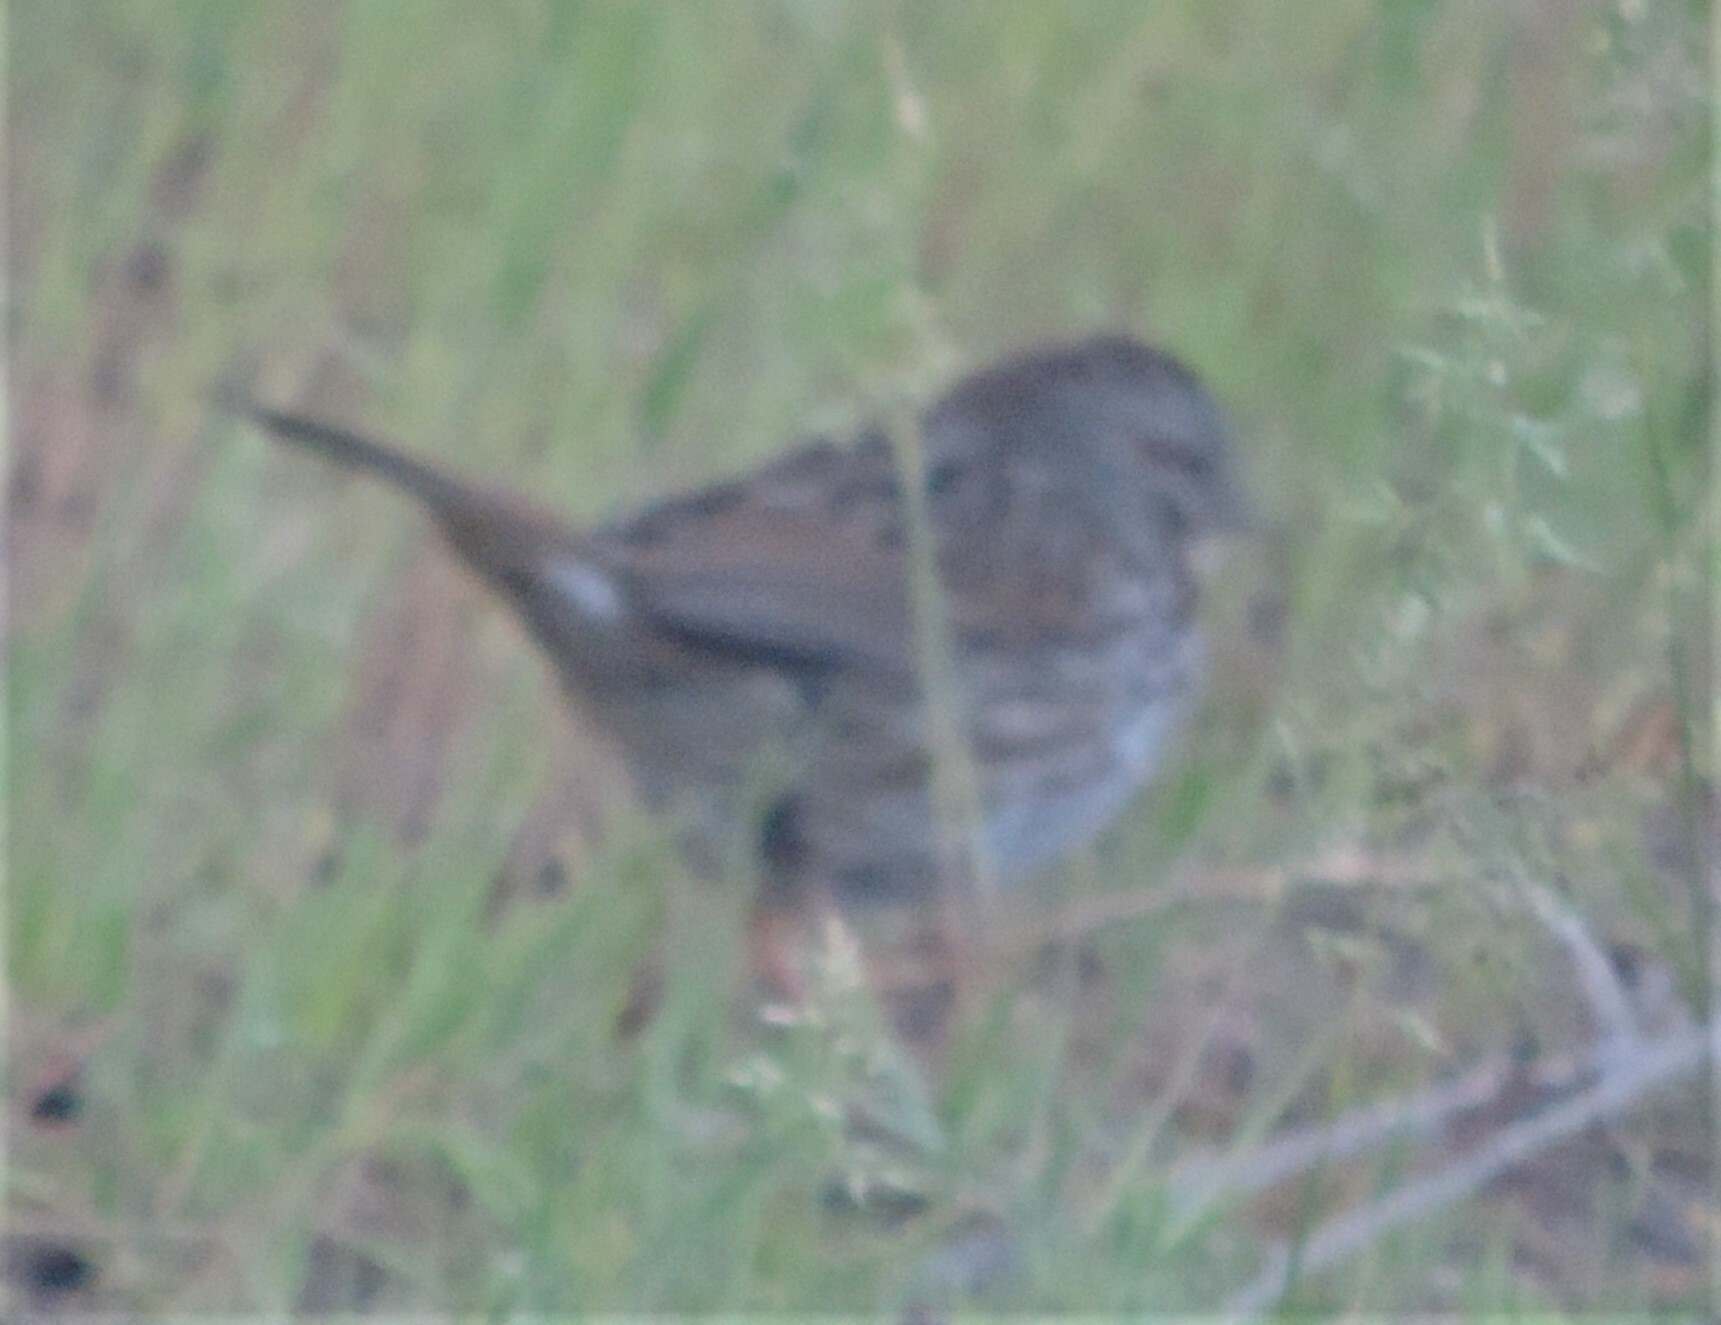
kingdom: Animalia
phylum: Chordata
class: Aves
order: Passeriformes
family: Passerellidae
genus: Melospiza
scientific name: Melospiza melodia
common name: Song sparrow
